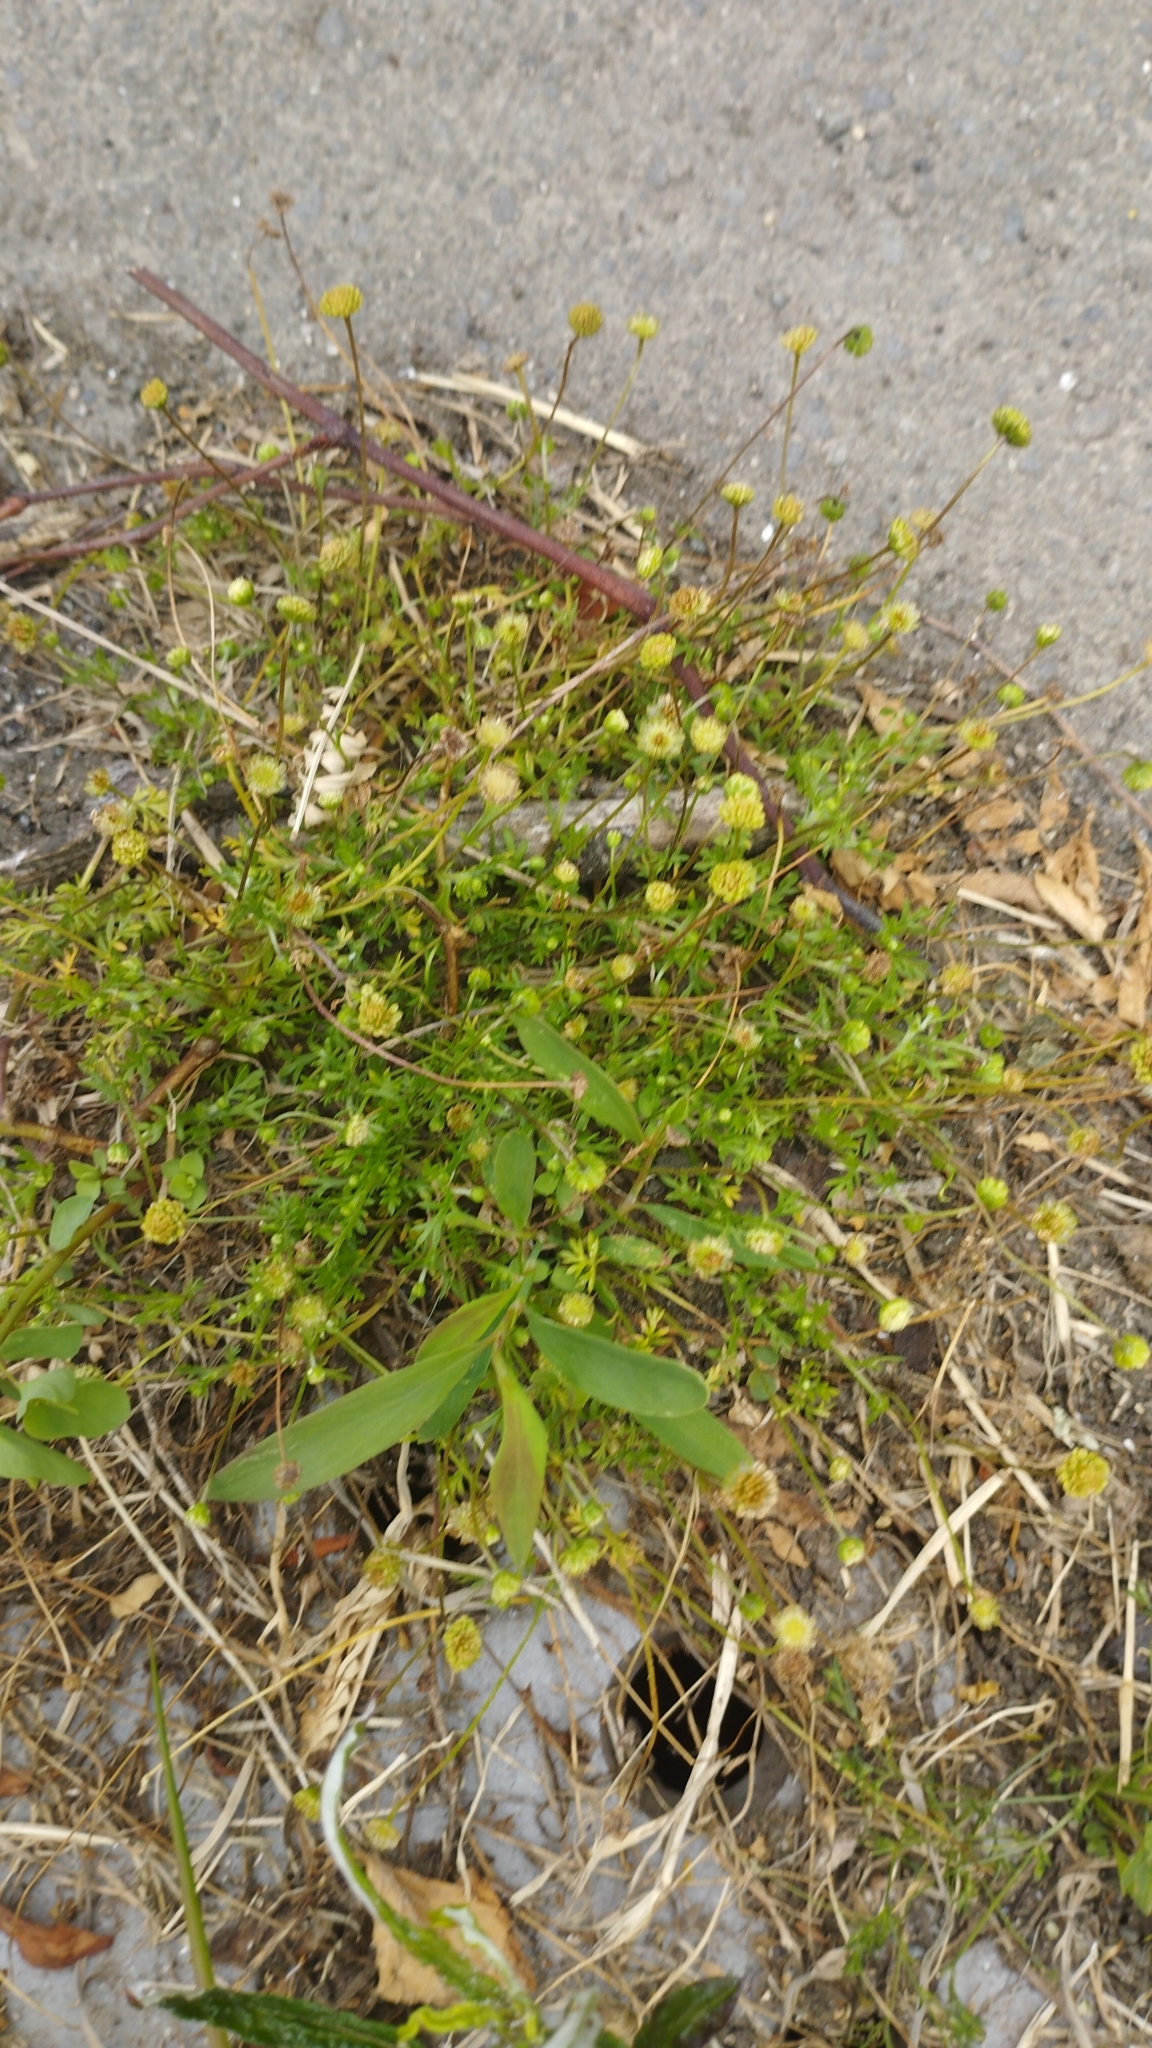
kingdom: Plantae
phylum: Tracheophyta
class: Magnoliopsida
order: Asterales
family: Asteraceae
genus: Cotula
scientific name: Cotula australis
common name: Australian waterbuttons
